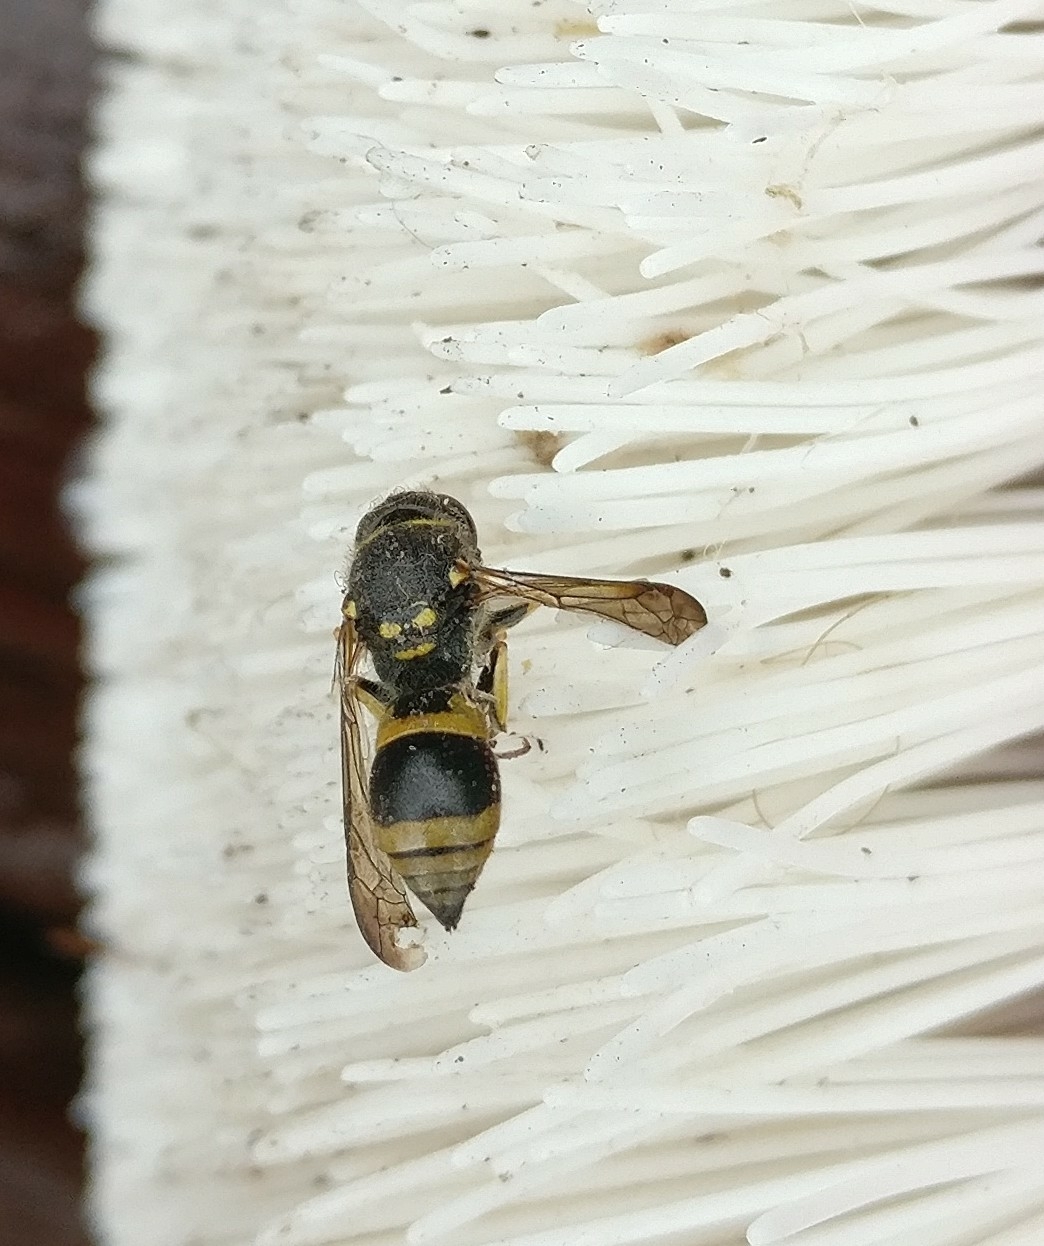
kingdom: Animalia
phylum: Arthropoda
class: Insecta
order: Hymenoptera
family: Vespidae
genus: Ancistrocerus
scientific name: Ancistrocerus gazella
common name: European tube wasp
